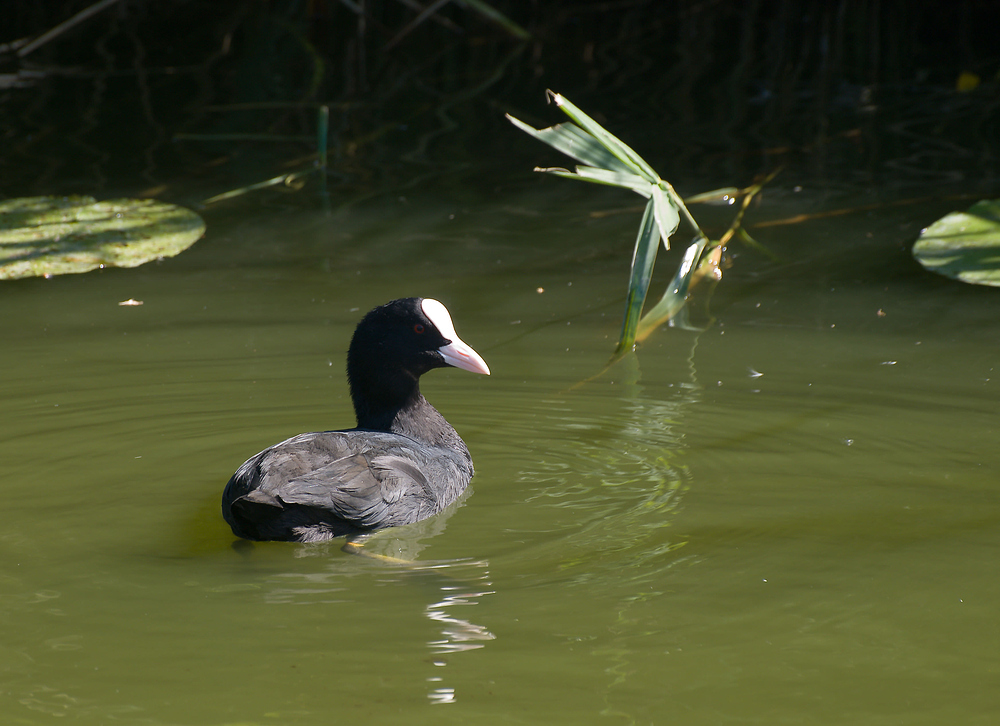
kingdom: Animalia
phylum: Chordata
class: Aves
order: Gruiformes
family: Rallidae
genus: Fulica
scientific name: Fulica atra
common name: Eurasian coot
